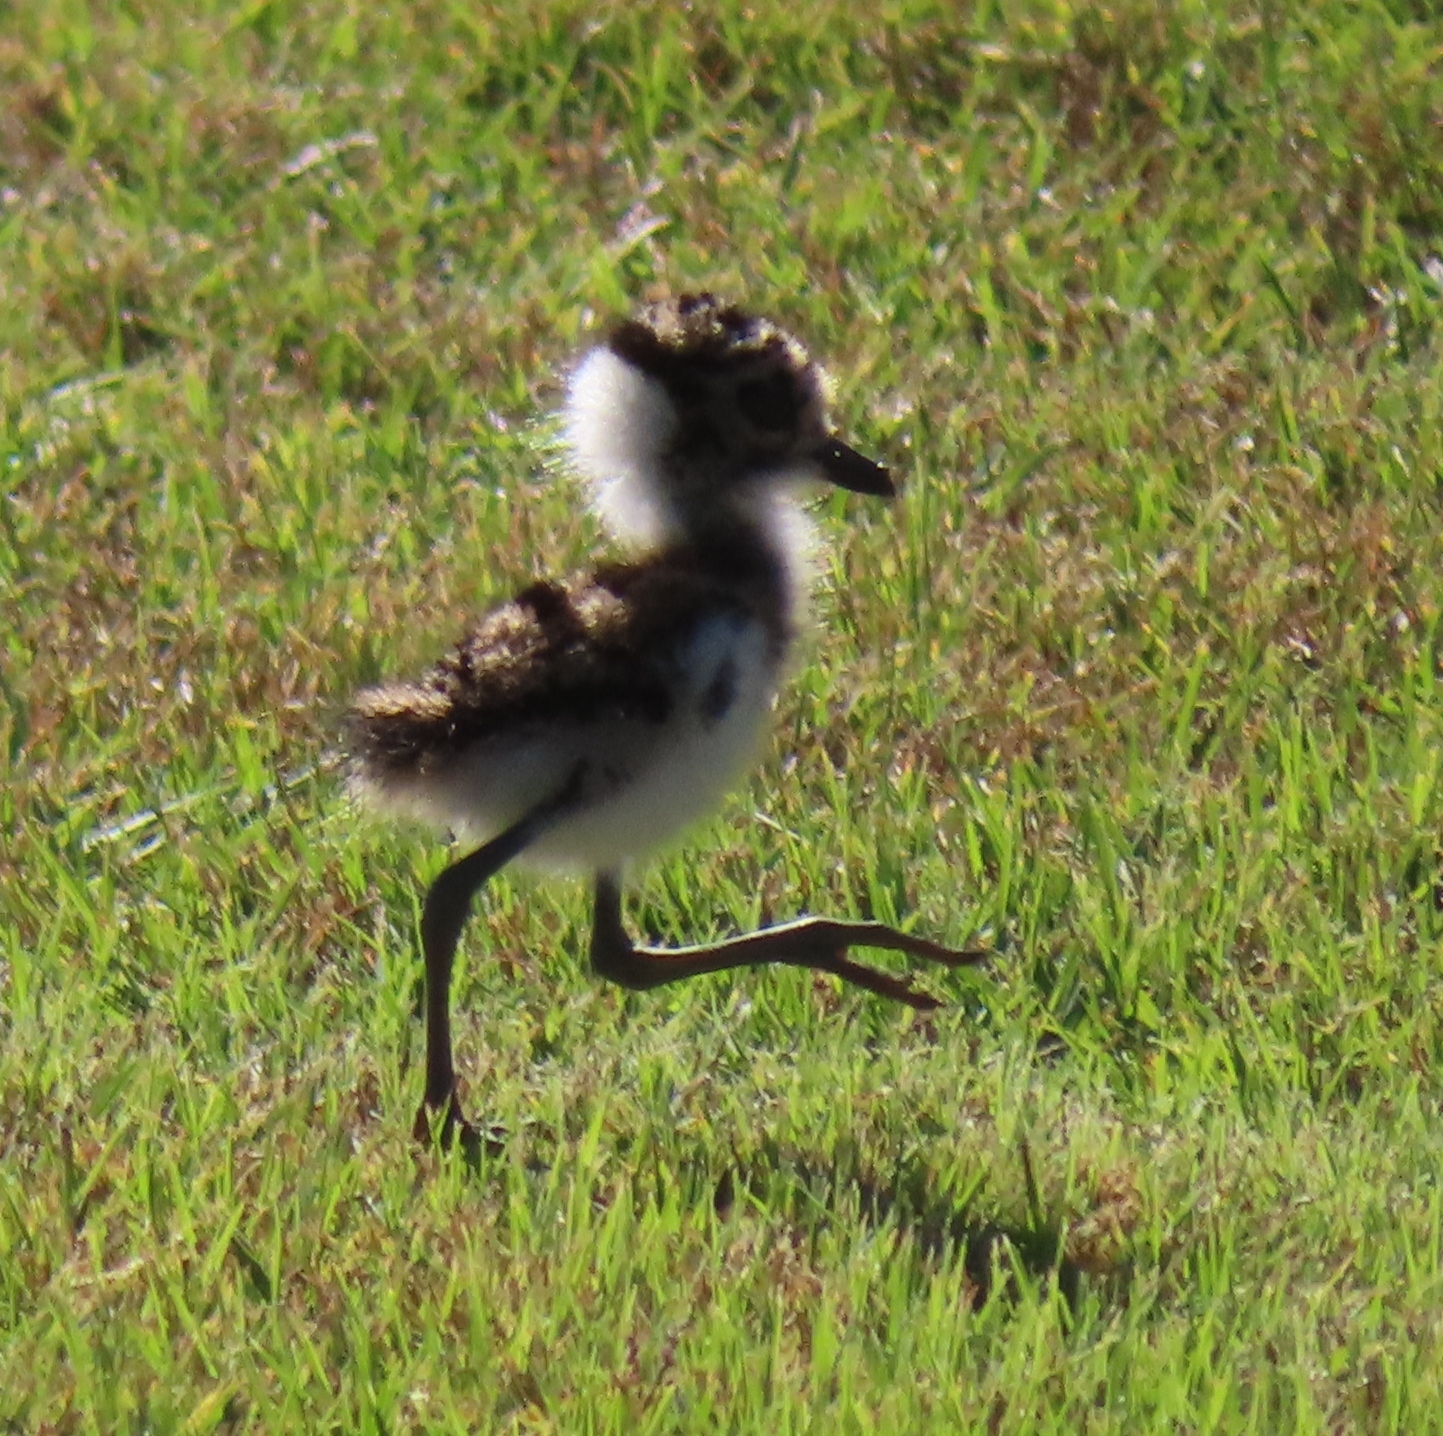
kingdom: Animalia
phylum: Chordata
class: Aves
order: Charadriiformes
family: Charadriidae
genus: Vanellus
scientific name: Vanellus armatus
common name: Blacksmith lapwing
